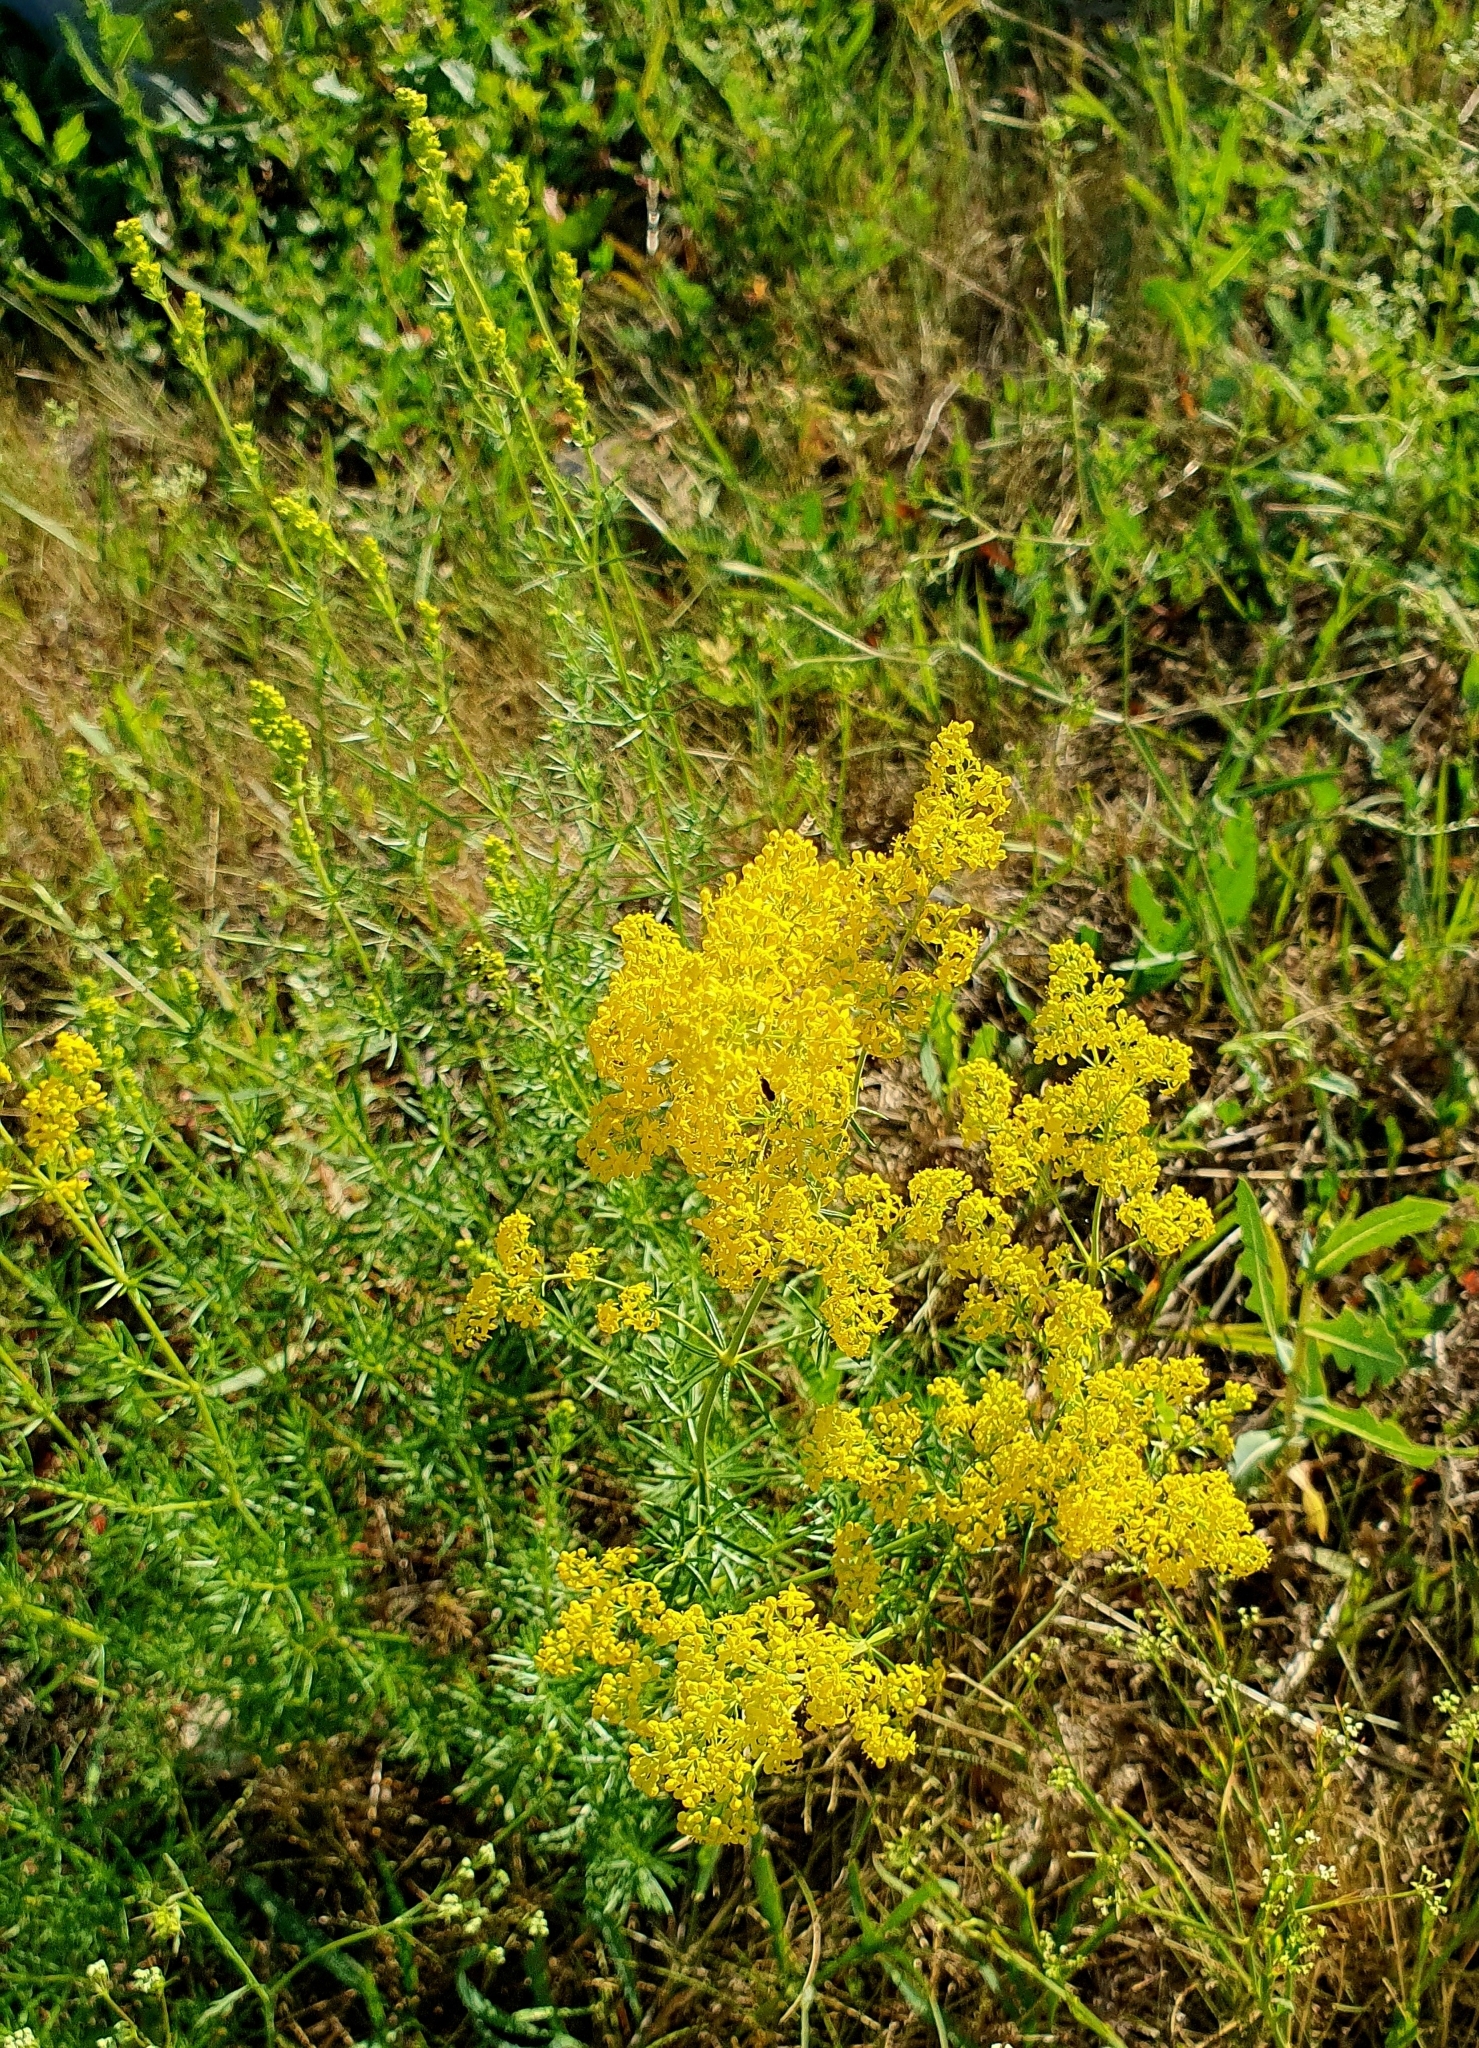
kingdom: Plantae
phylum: Tracheophyta
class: Magnoliopsida
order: Gentianales
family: Rubiaceae
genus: Galium
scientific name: Galium verum
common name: Lady's bedstraw
